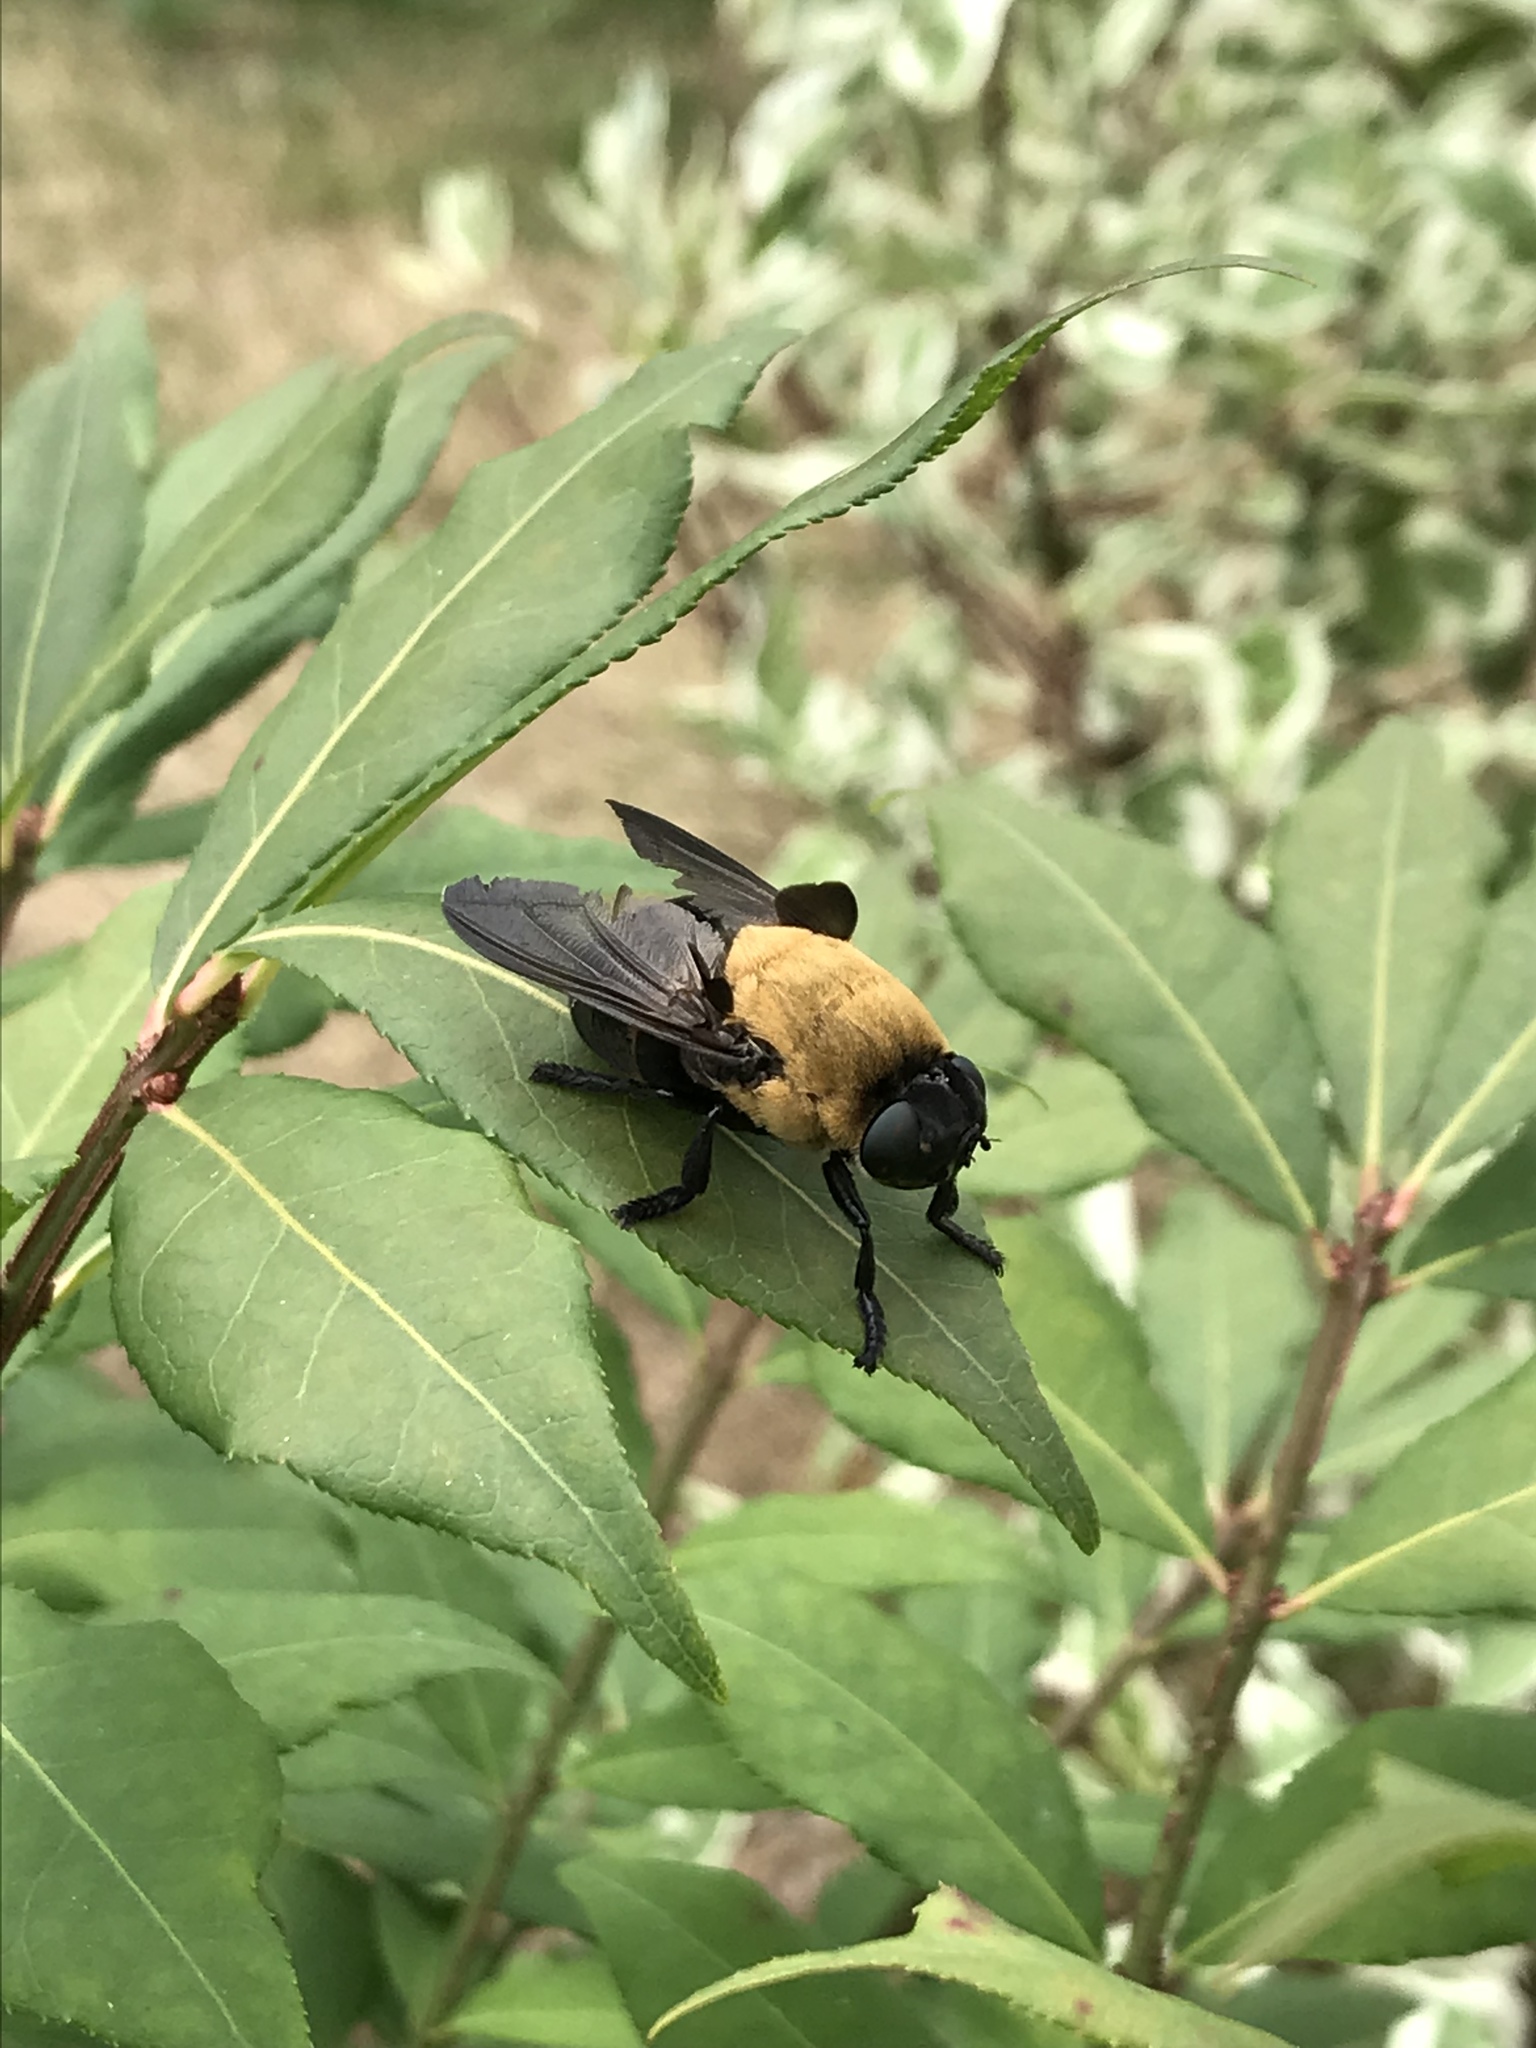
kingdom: Animalia
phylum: Arthropoda
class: Insecta
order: Diptera
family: Oestridae
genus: Cuterebra
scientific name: Cuterebra abdominalis
